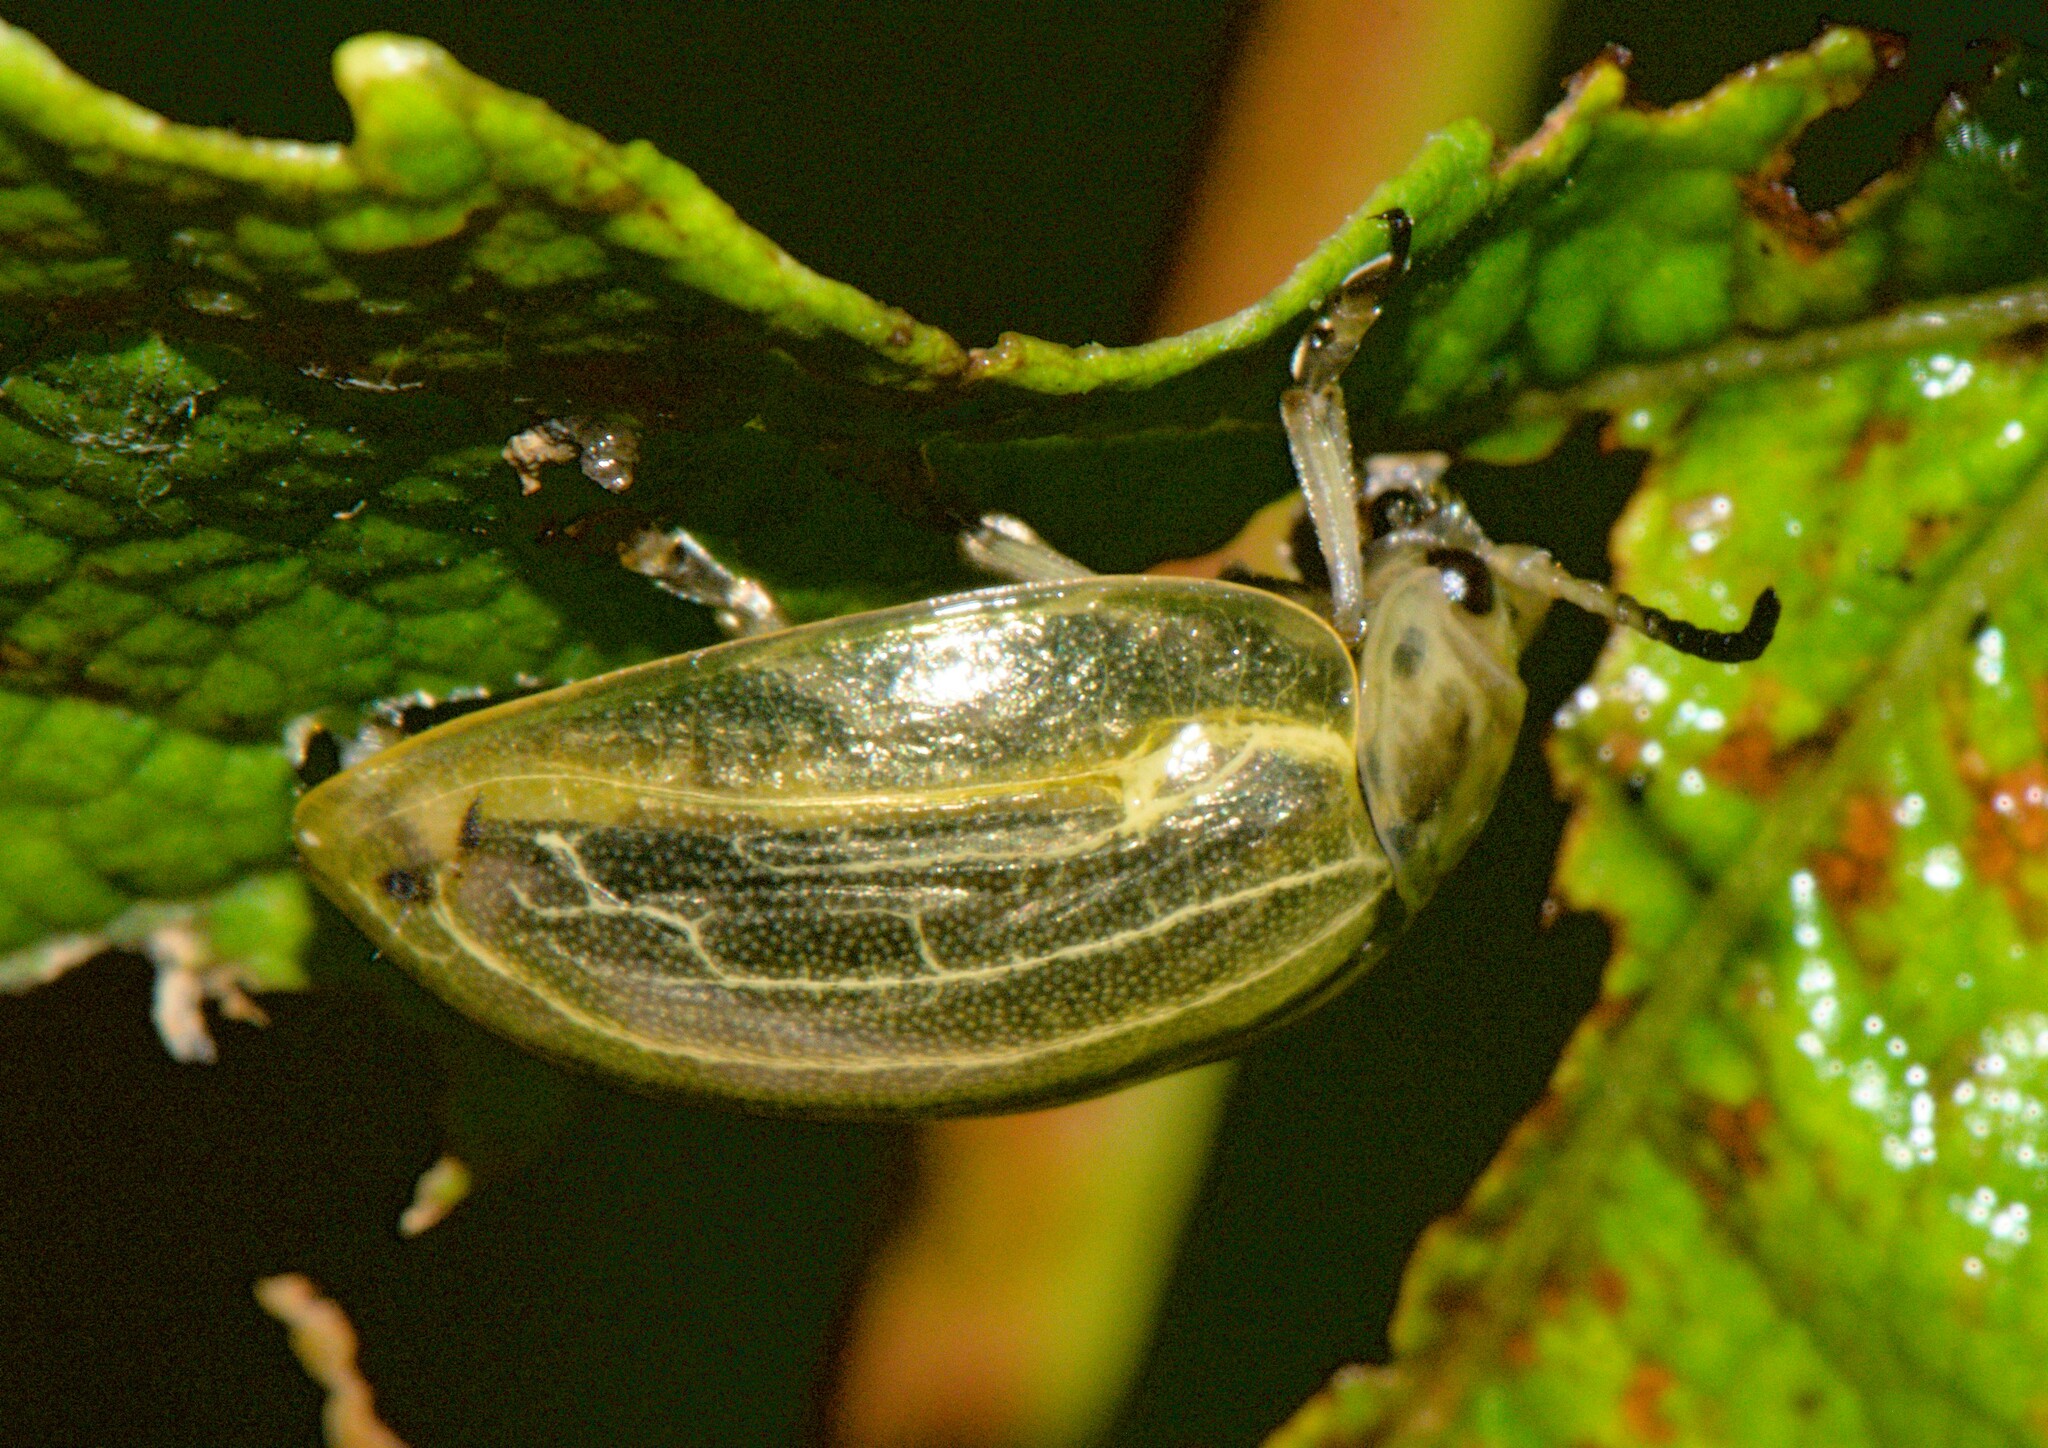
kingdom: Animalia
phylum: Arthropoda
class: Insecta
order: Coleoptera
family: Chrysomelidae
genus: Oides
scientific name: Oides scutellata
